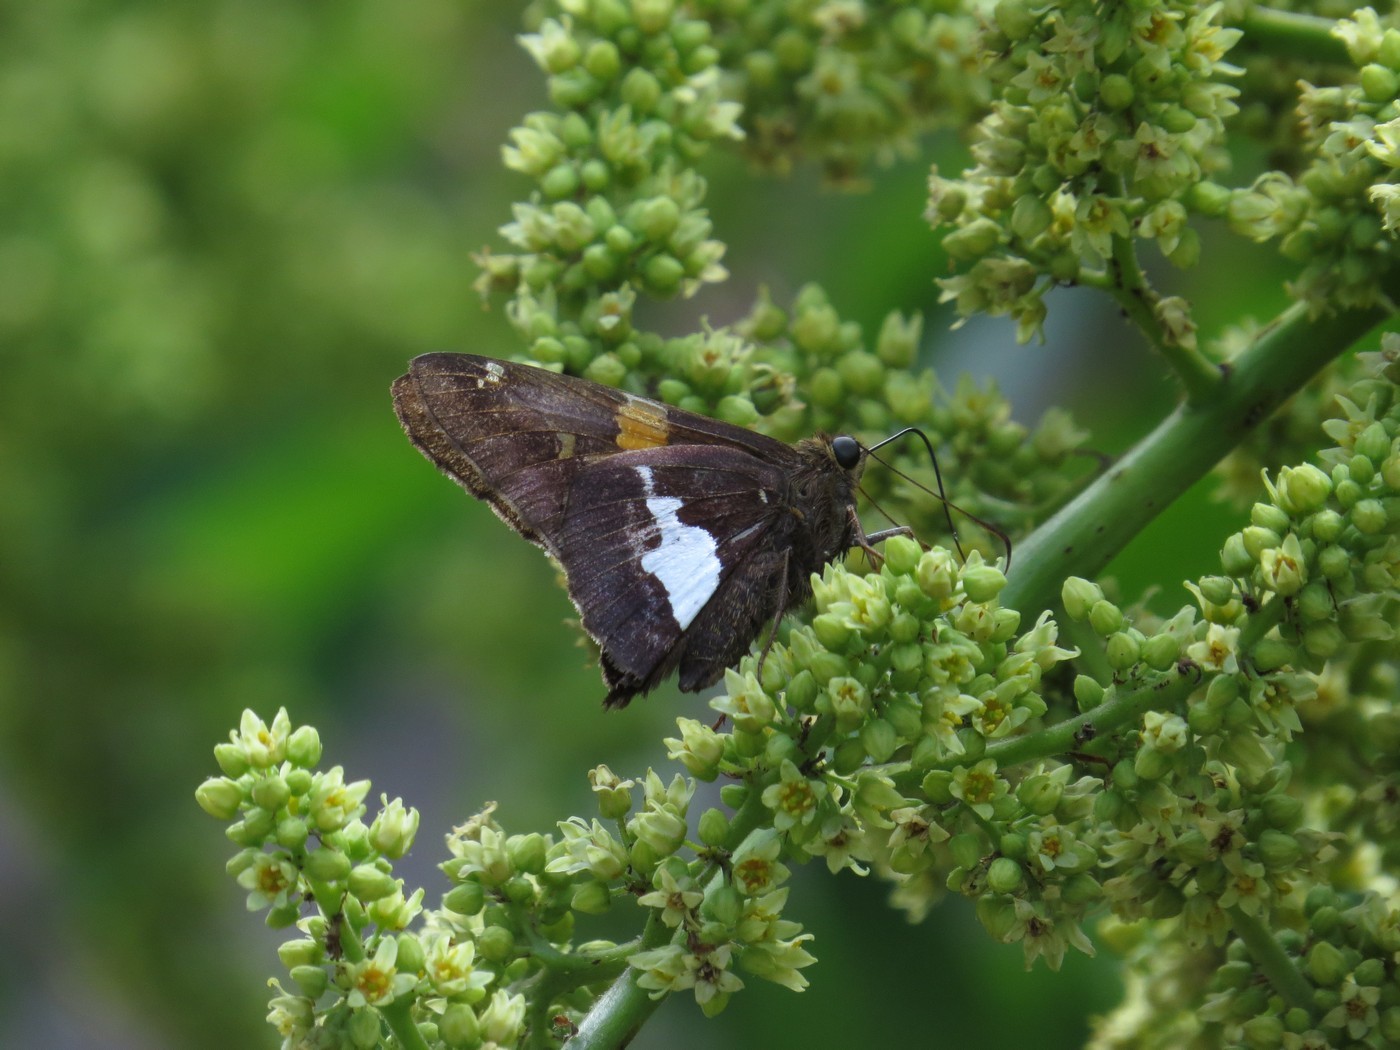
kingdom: Animalia
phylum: Arthropoda
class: Insecta
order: Lepidoptera
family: Hesperiidae
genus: Epargyreus
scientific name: Epargyreus clarus
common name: Silver-spotted skipper
